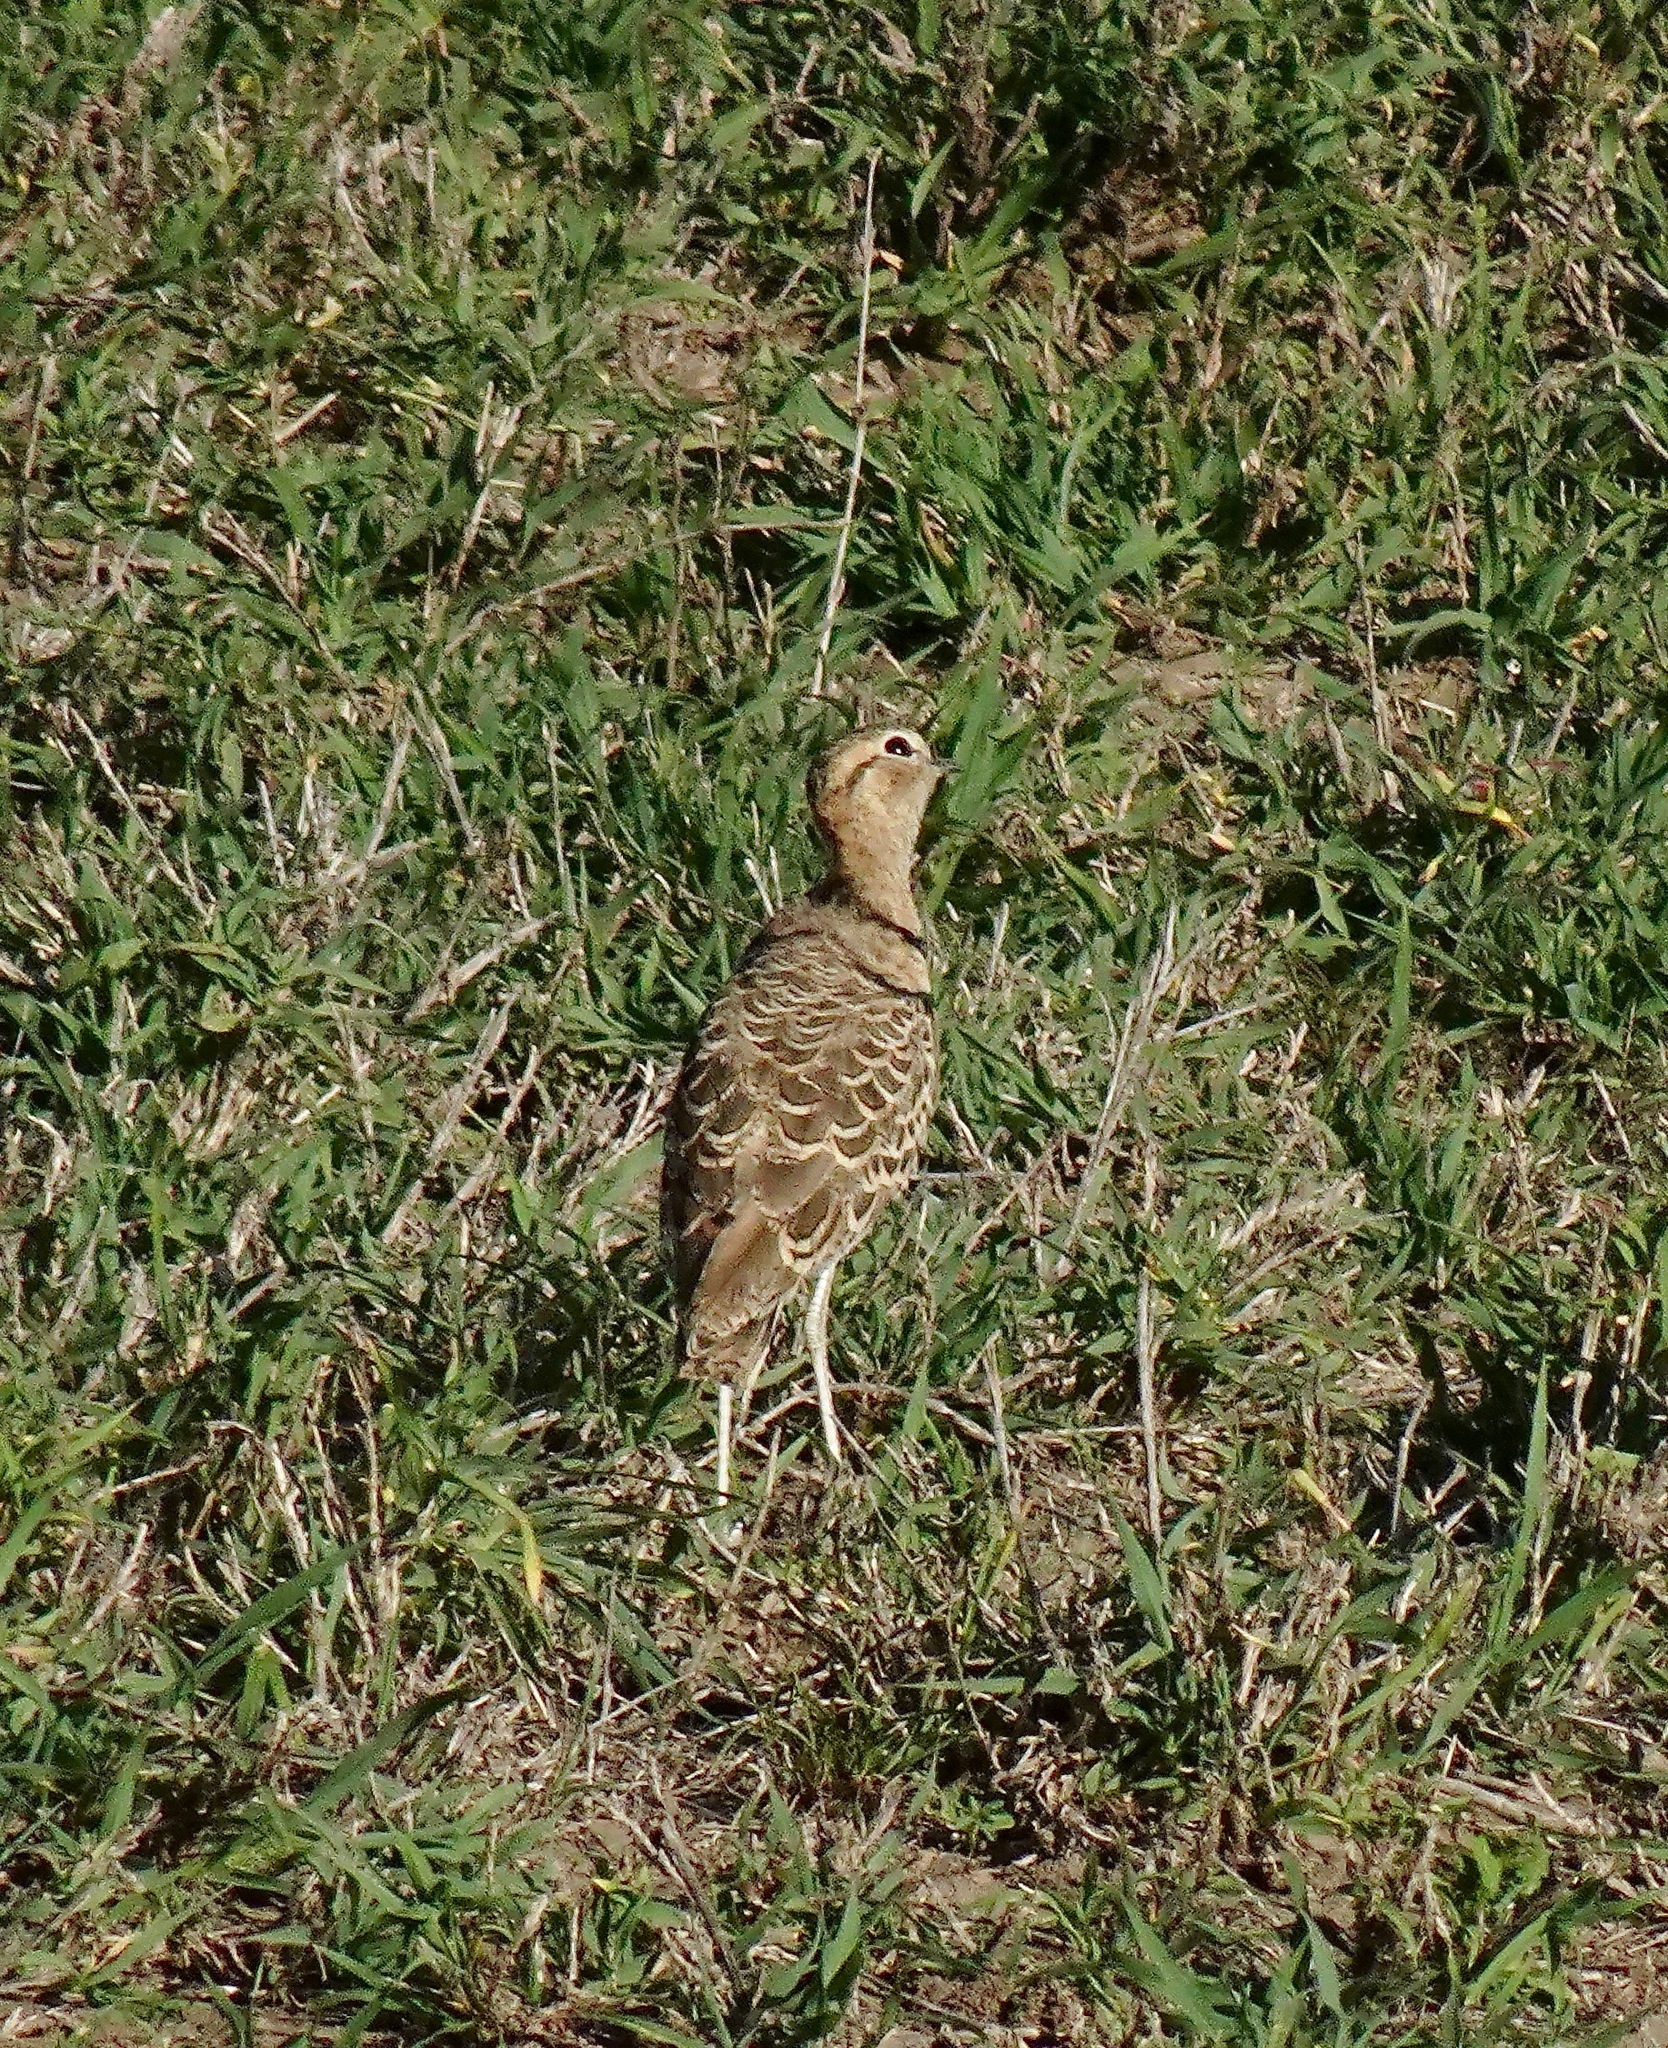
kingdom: Animalia
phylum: Chordata
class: Aves
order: Charadriiformes
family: Glareolidae
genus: Rhinoptilus
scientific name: Rhinoptilus africanus
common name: Double-banded courser
